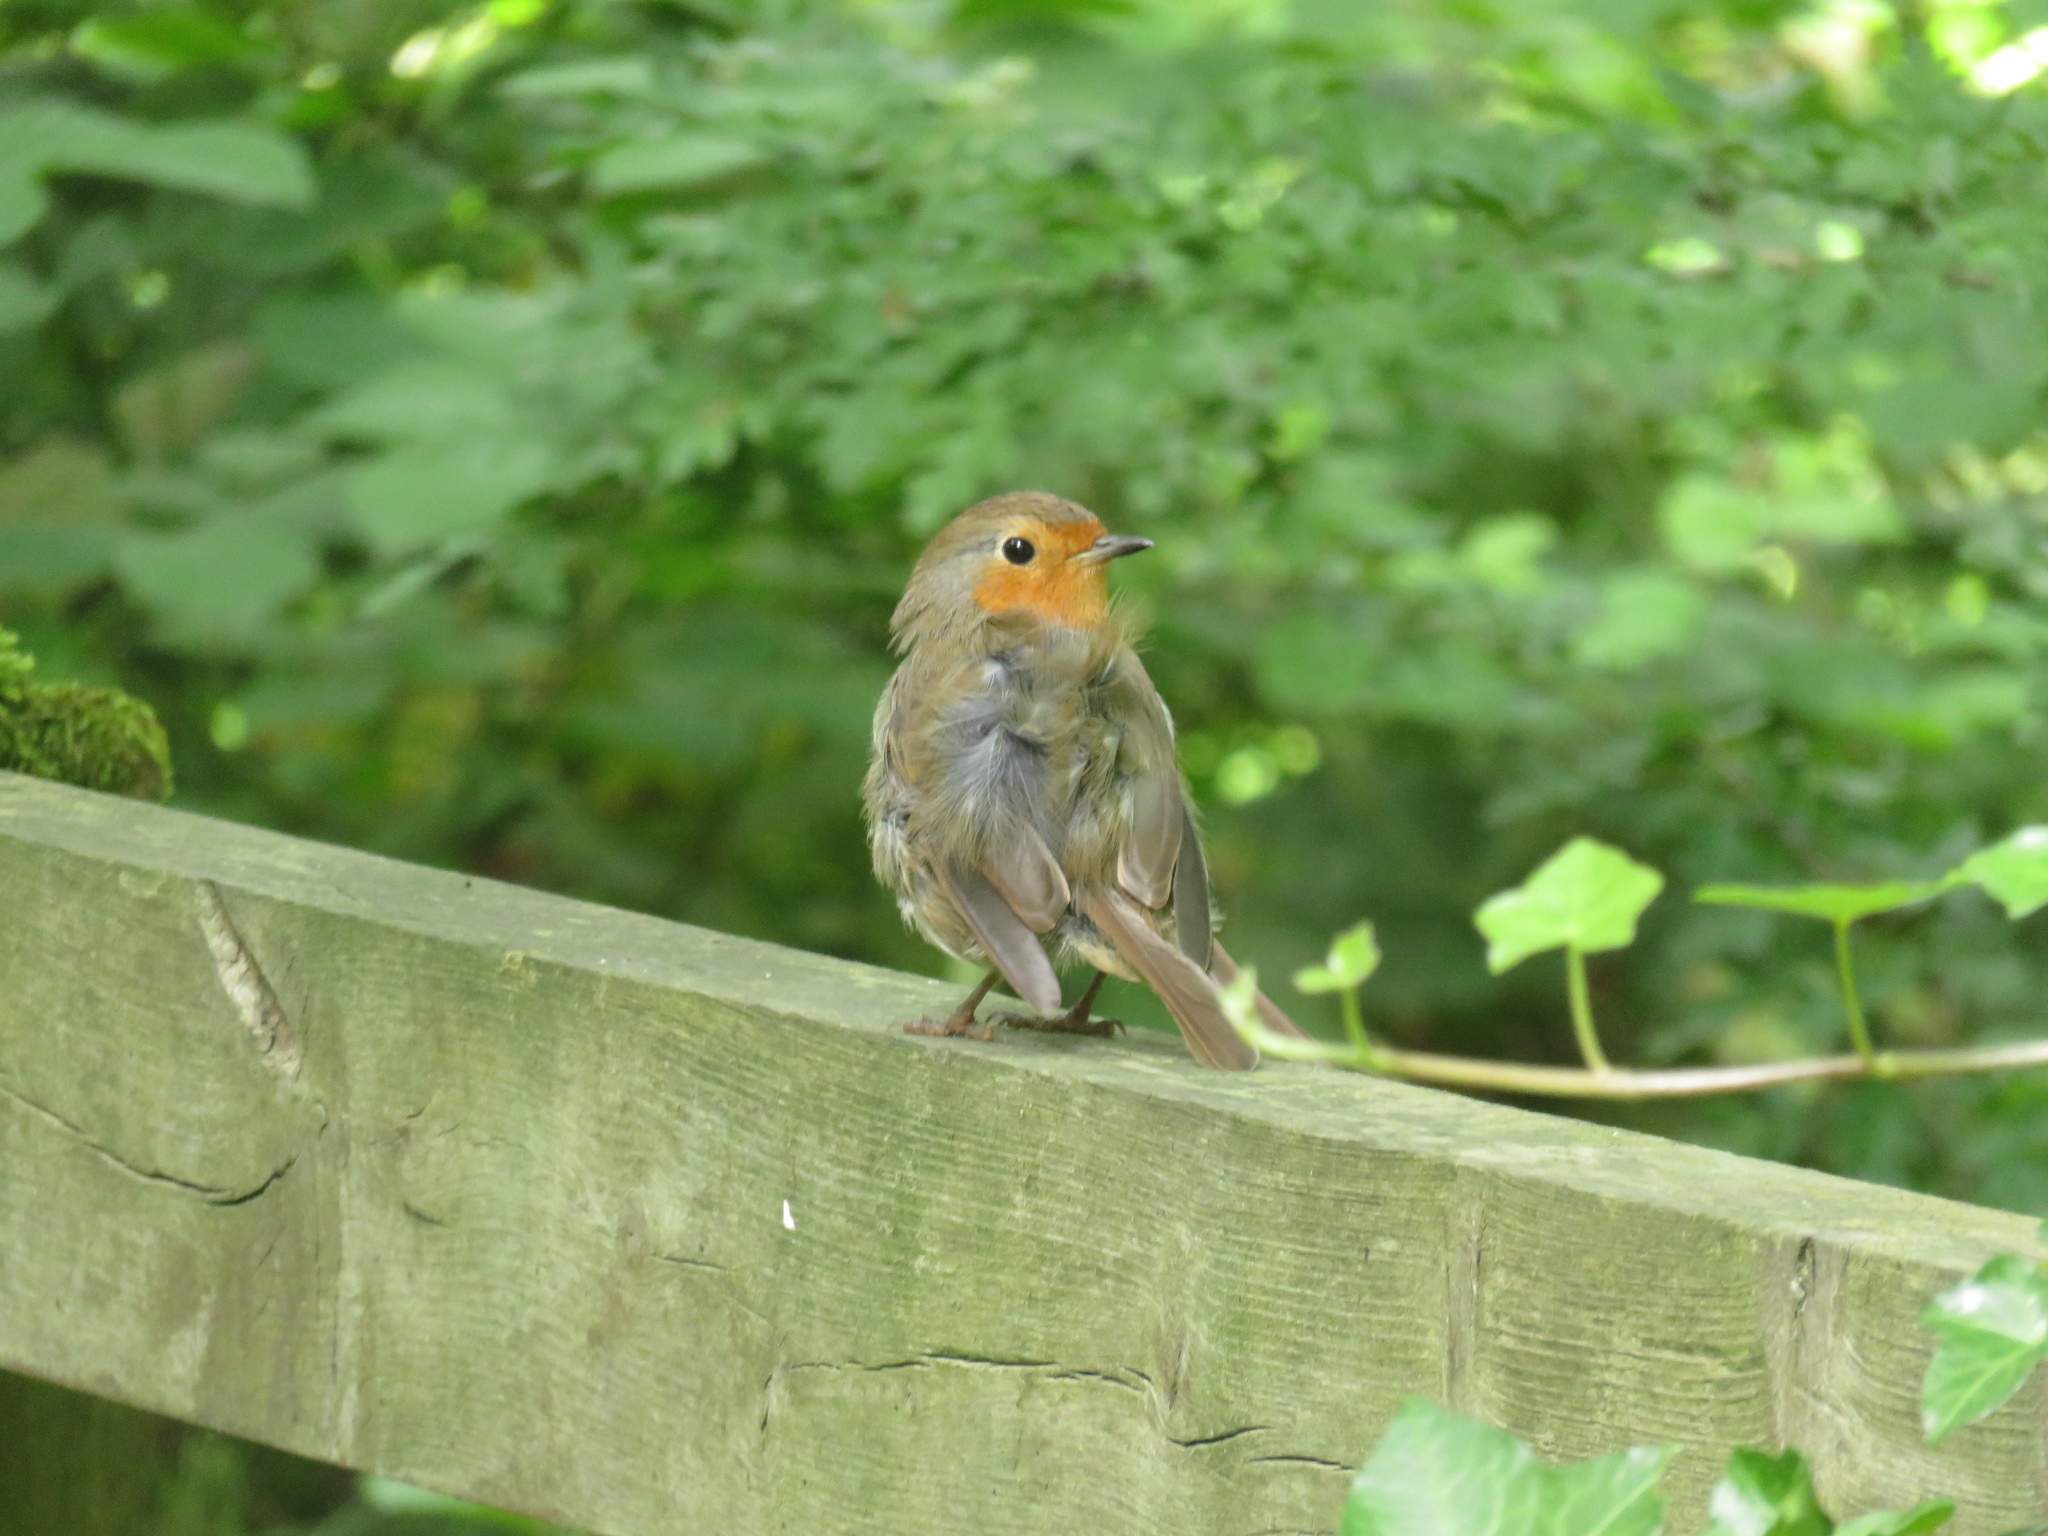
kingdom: Animalia
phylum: Chordata
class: Aves
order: Passeriformes
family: Muscicapidae
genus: Erithacus
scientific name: Erithacus rubecula
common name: European robin
